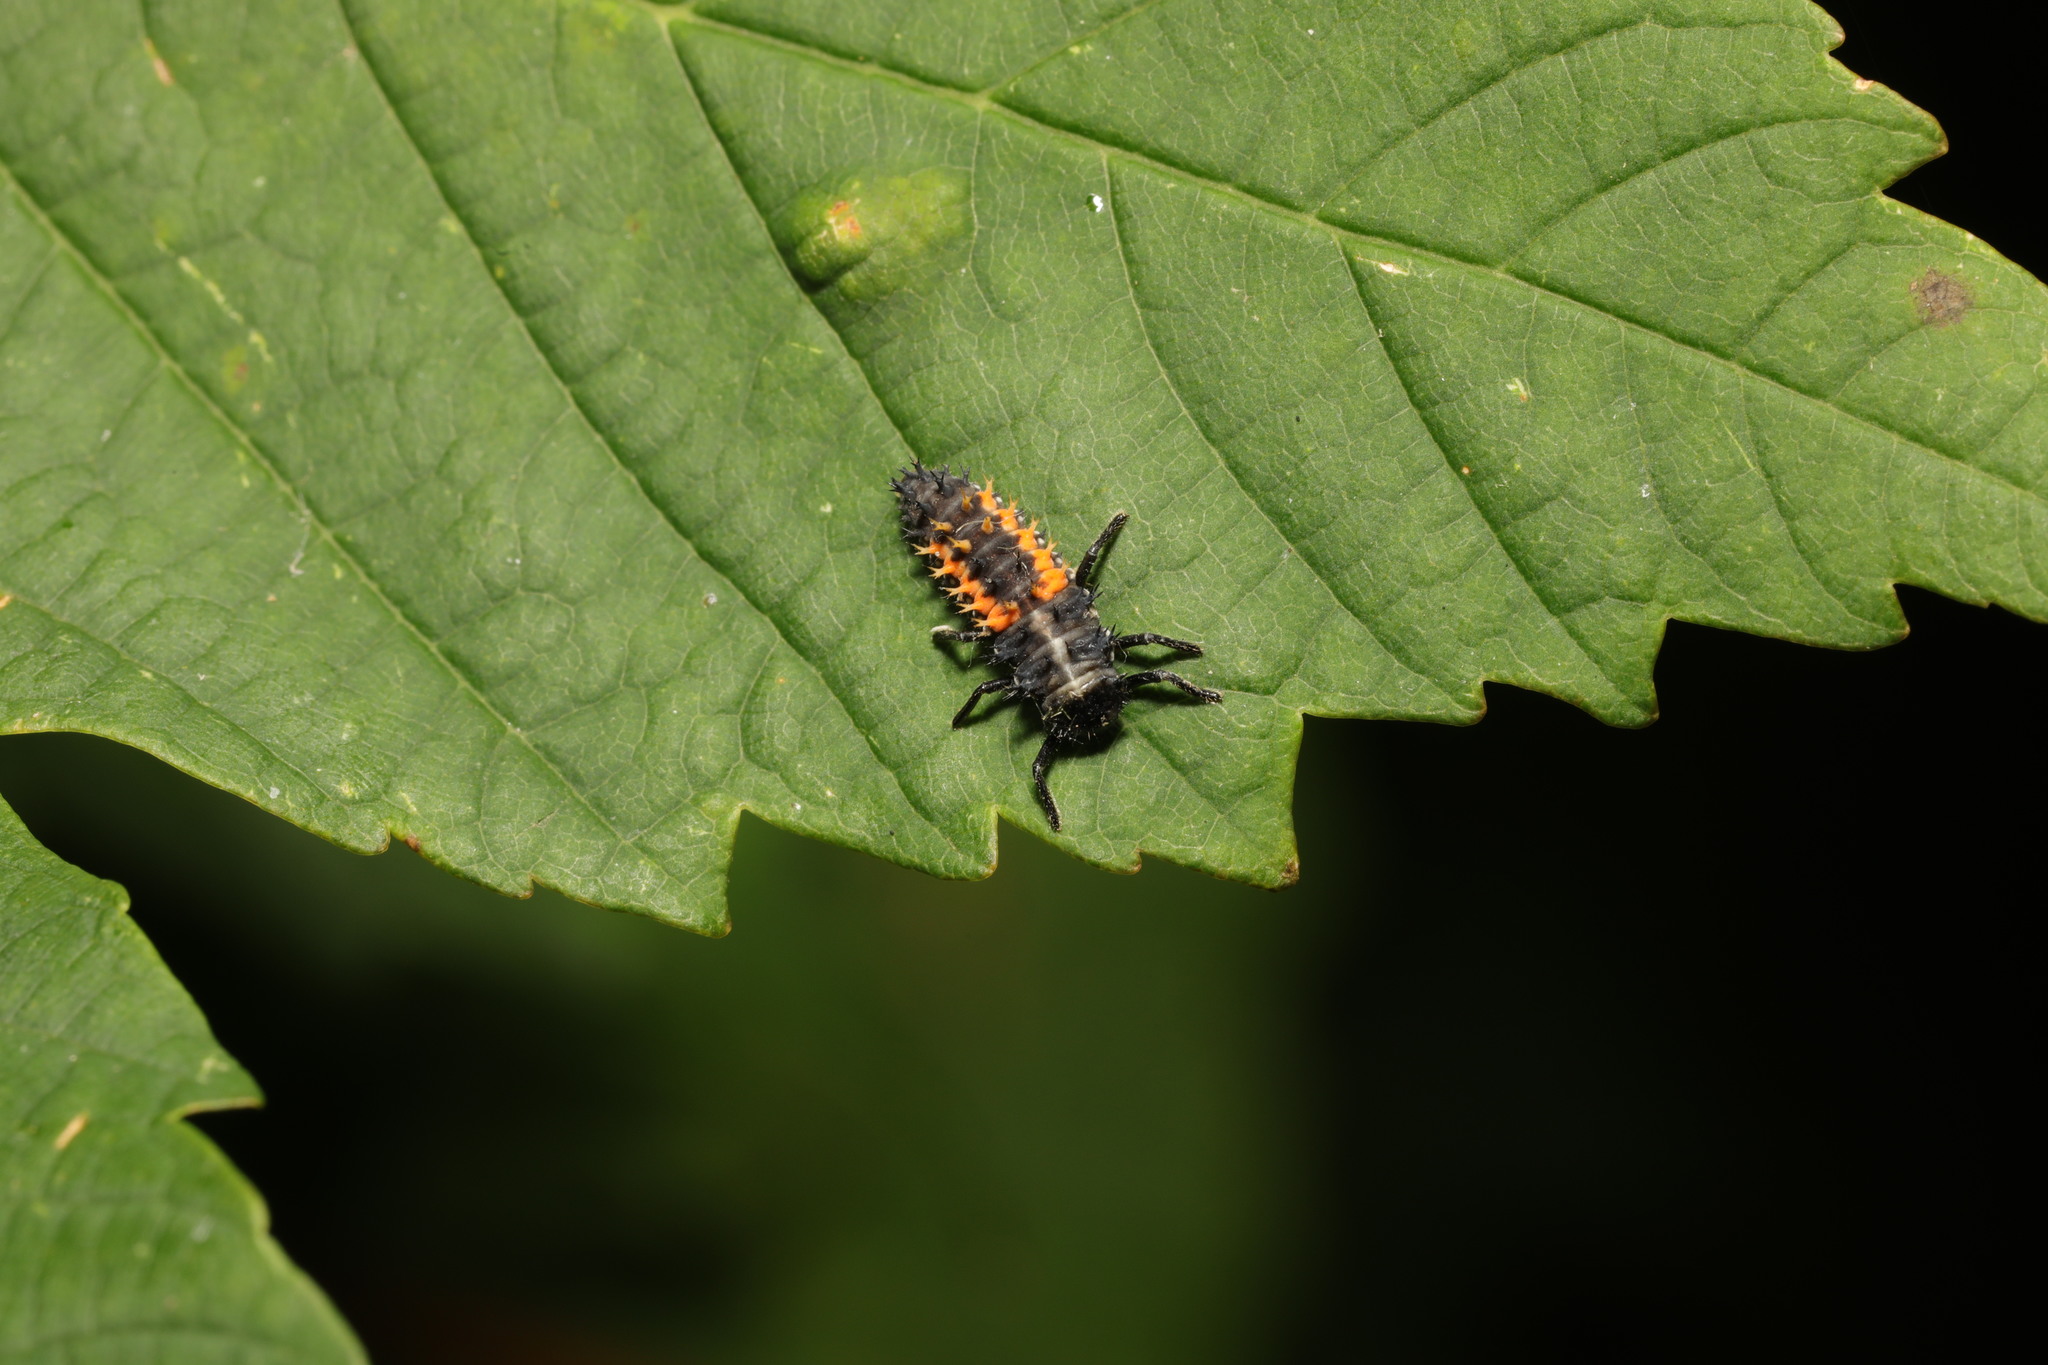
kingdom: Animalia
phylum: Arthropoda
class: Insecta
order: Coleoptera
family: Coccinellidae
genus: Harmonia
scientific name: Harmonia axyridis
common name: Harlequin ladybird
